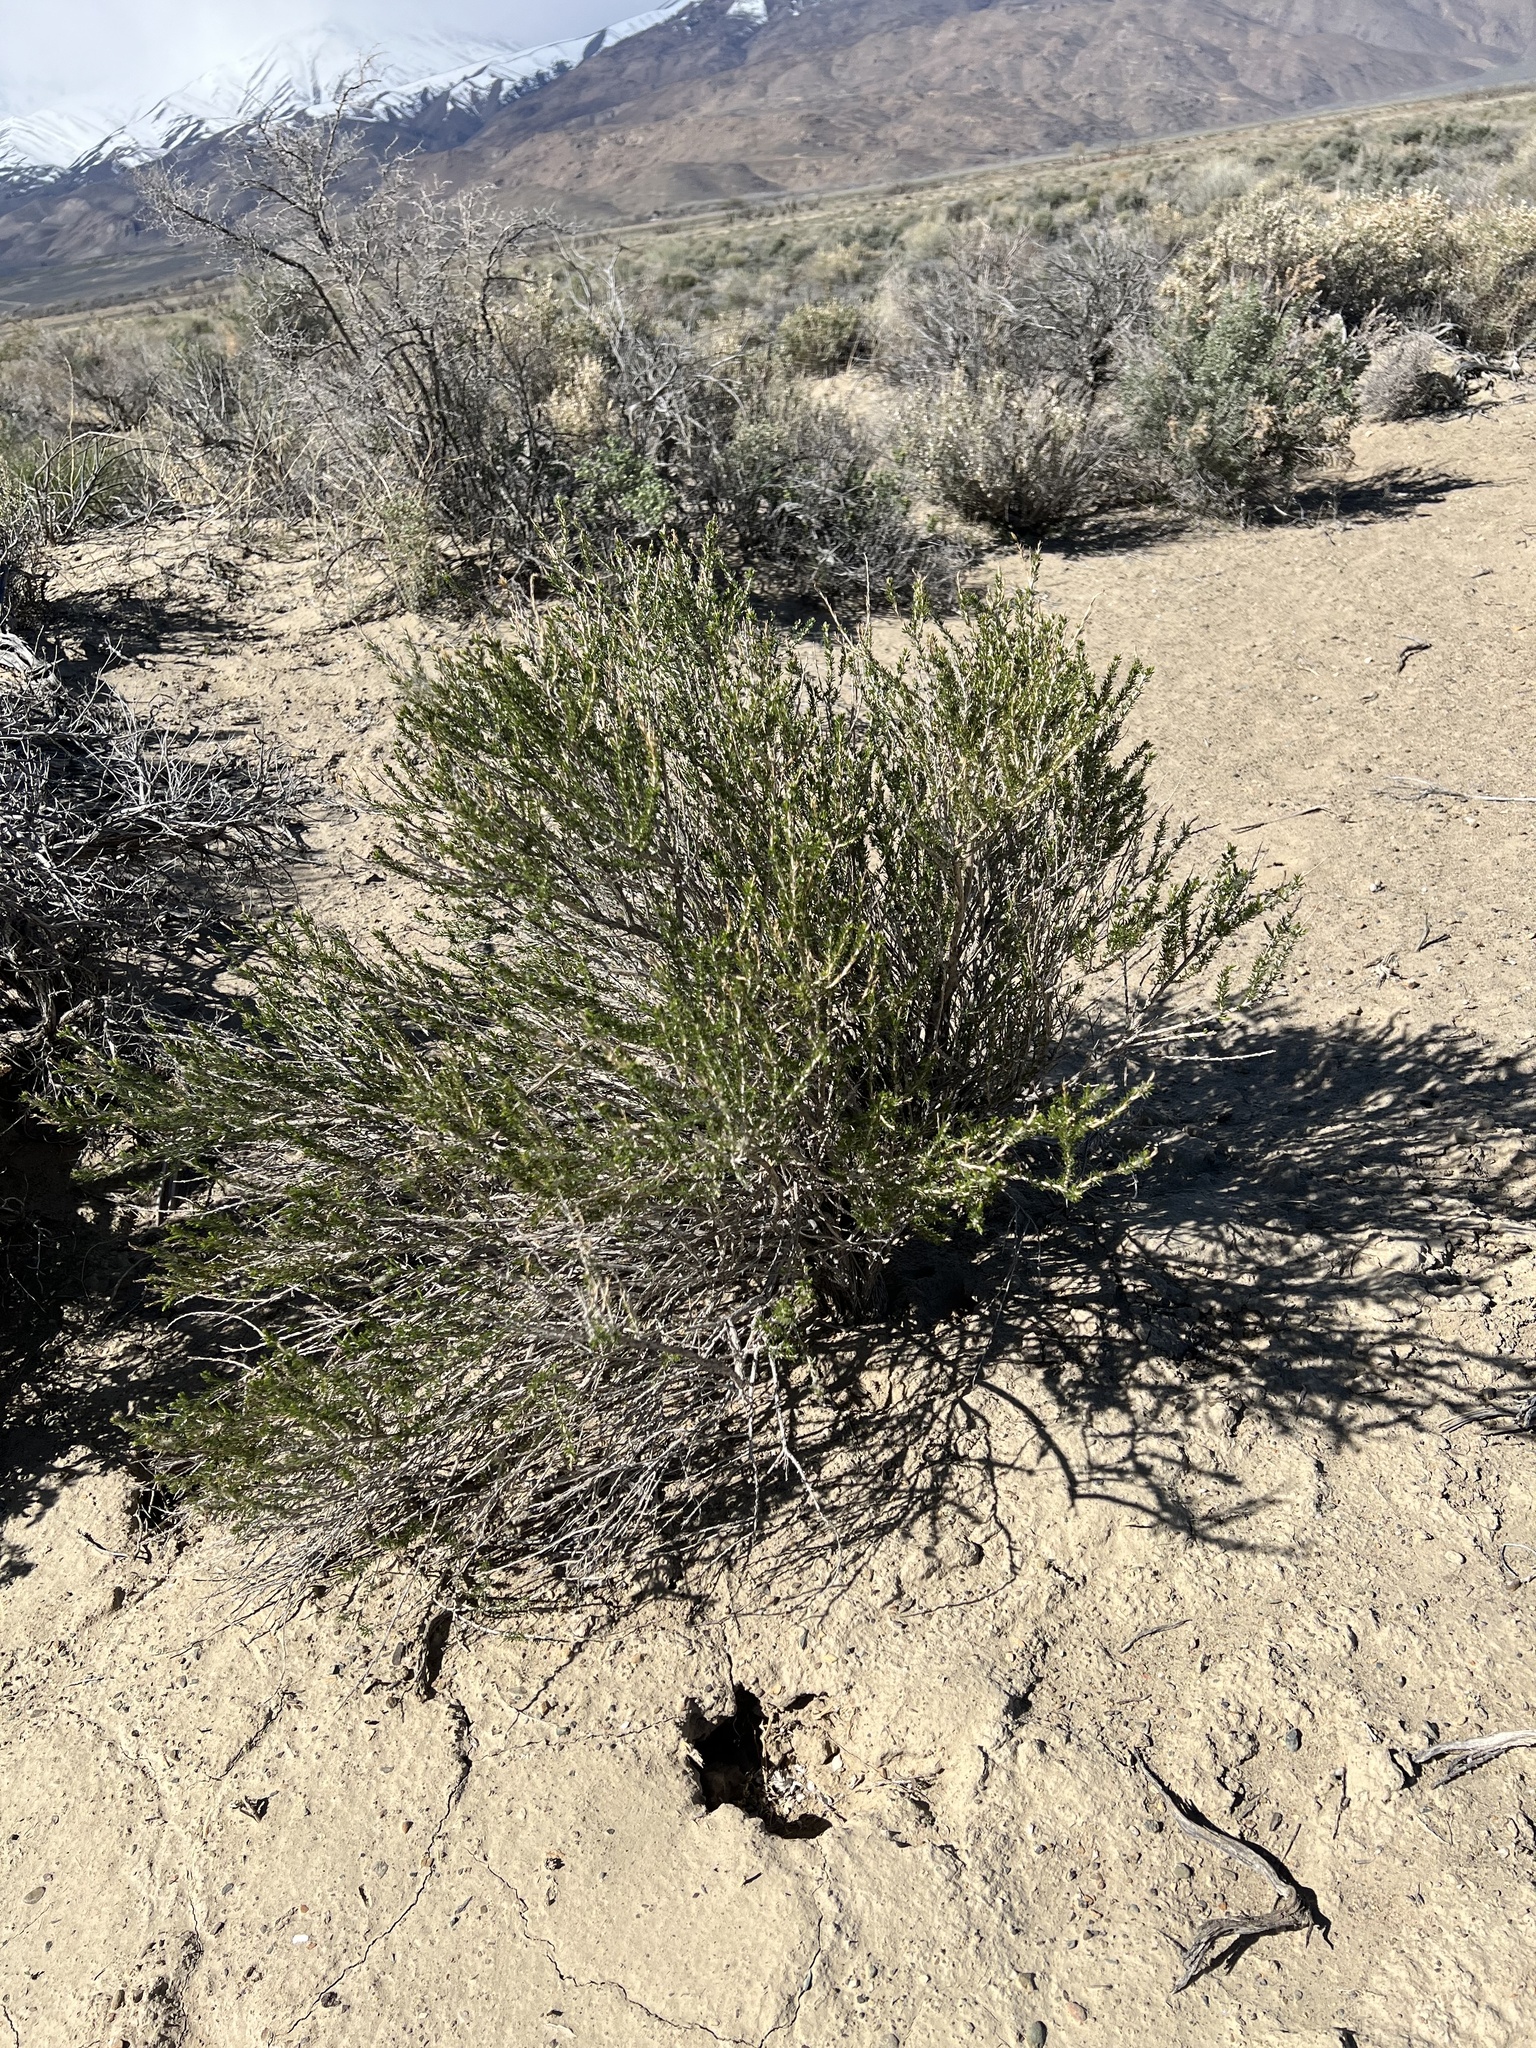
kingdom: Plantae
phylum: Tracheophyta
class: Magnoliopsida
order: Asterales
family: Asteraceae
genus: Tetradymia
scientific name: Tetradymia glabrata
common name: Smooth tetradymia
